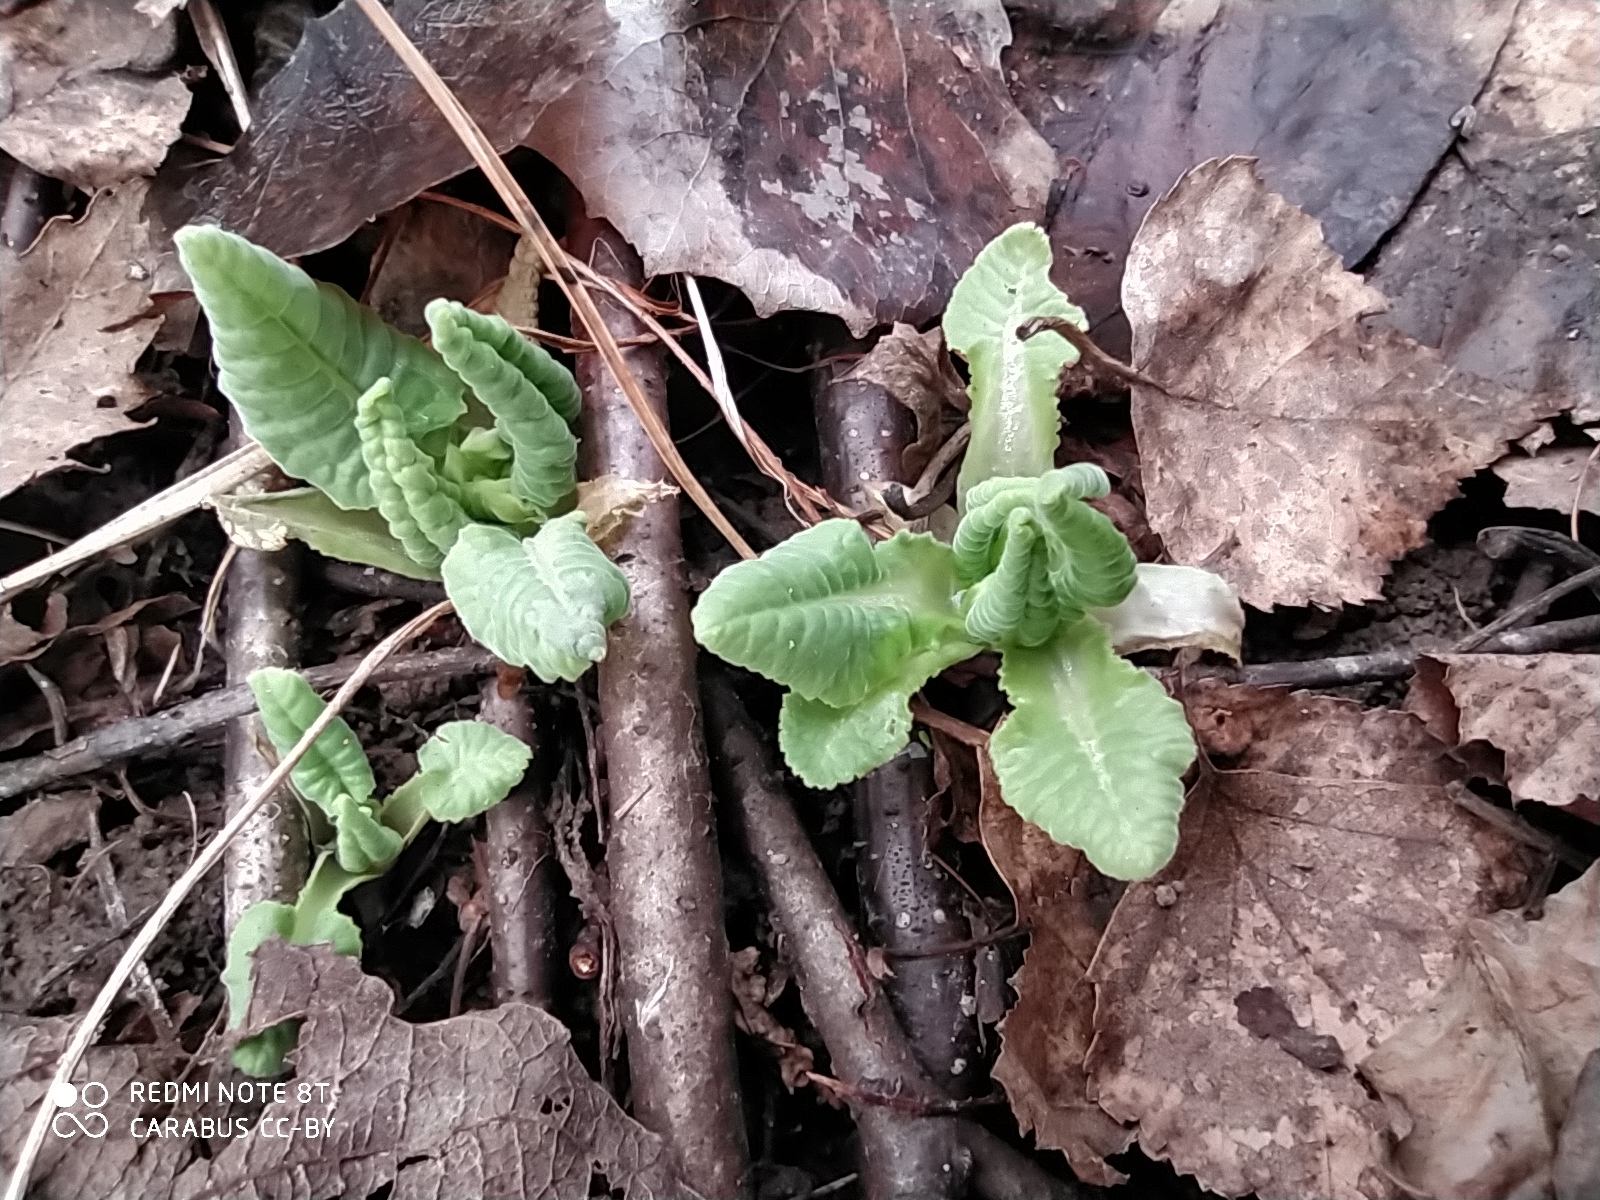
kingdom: Plantae
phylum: Tracheophyta
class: Magnoliopsida
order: Ericales
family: Primulaceae
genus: Primula
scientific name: Primula veris
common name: Cowslip
